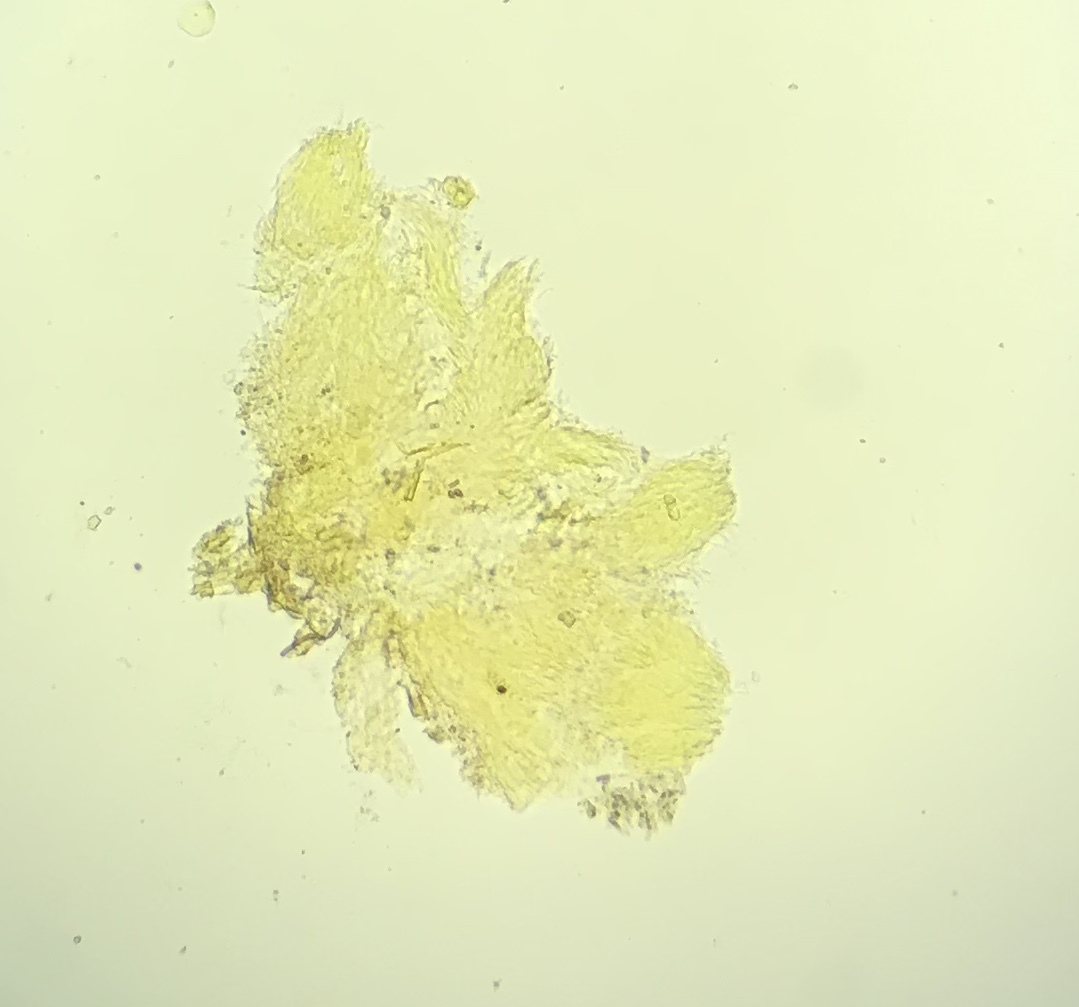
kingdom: Fungi
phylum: Basidiomycota
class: Agaricomycetes
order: Agaricales
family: Marasmiaceae
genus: Henningsomyces
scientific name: Henningsomyces candidus
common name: White tubelet
